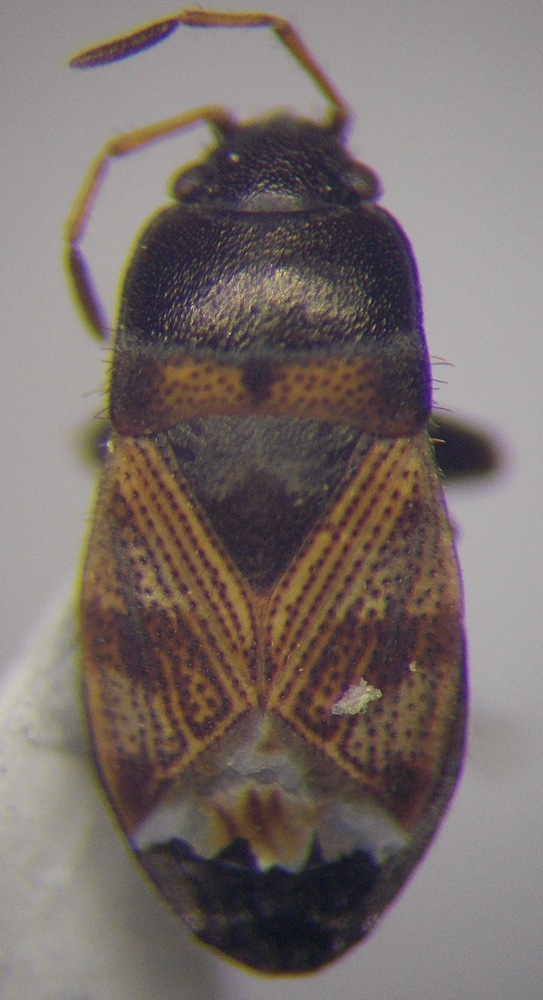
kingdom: Animalia
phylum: Arthropoda
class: Insecta
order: Hemiptera
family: Rhyparochromidae
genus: Pionosomus
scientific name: Pionosomus varius
